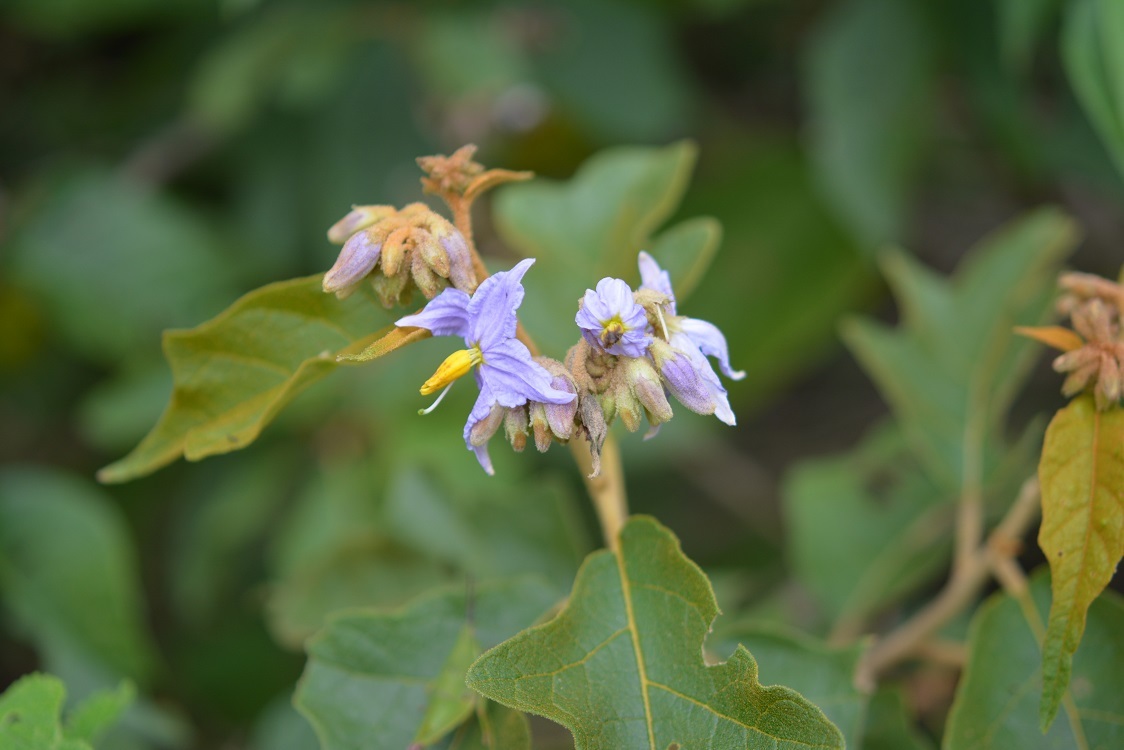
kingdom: Plantae
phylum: Tracheophyta
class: Magnoliopsida
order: Solanales
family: Solanaceae
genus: Solanum
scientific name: Solanum lanceolatum
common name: Orangeberry nightshade
